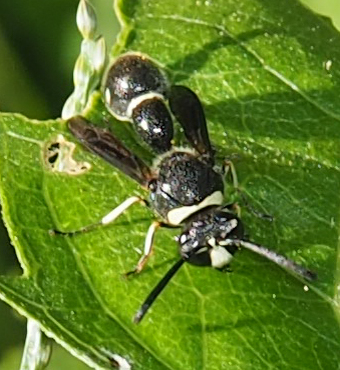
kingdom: Animalia
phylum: Arthropoda
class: Insecta
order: Hymenoptera
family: Vespidae
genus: Eumenes
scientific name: Eumenes fraternus
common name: Fraternal potter wasp
